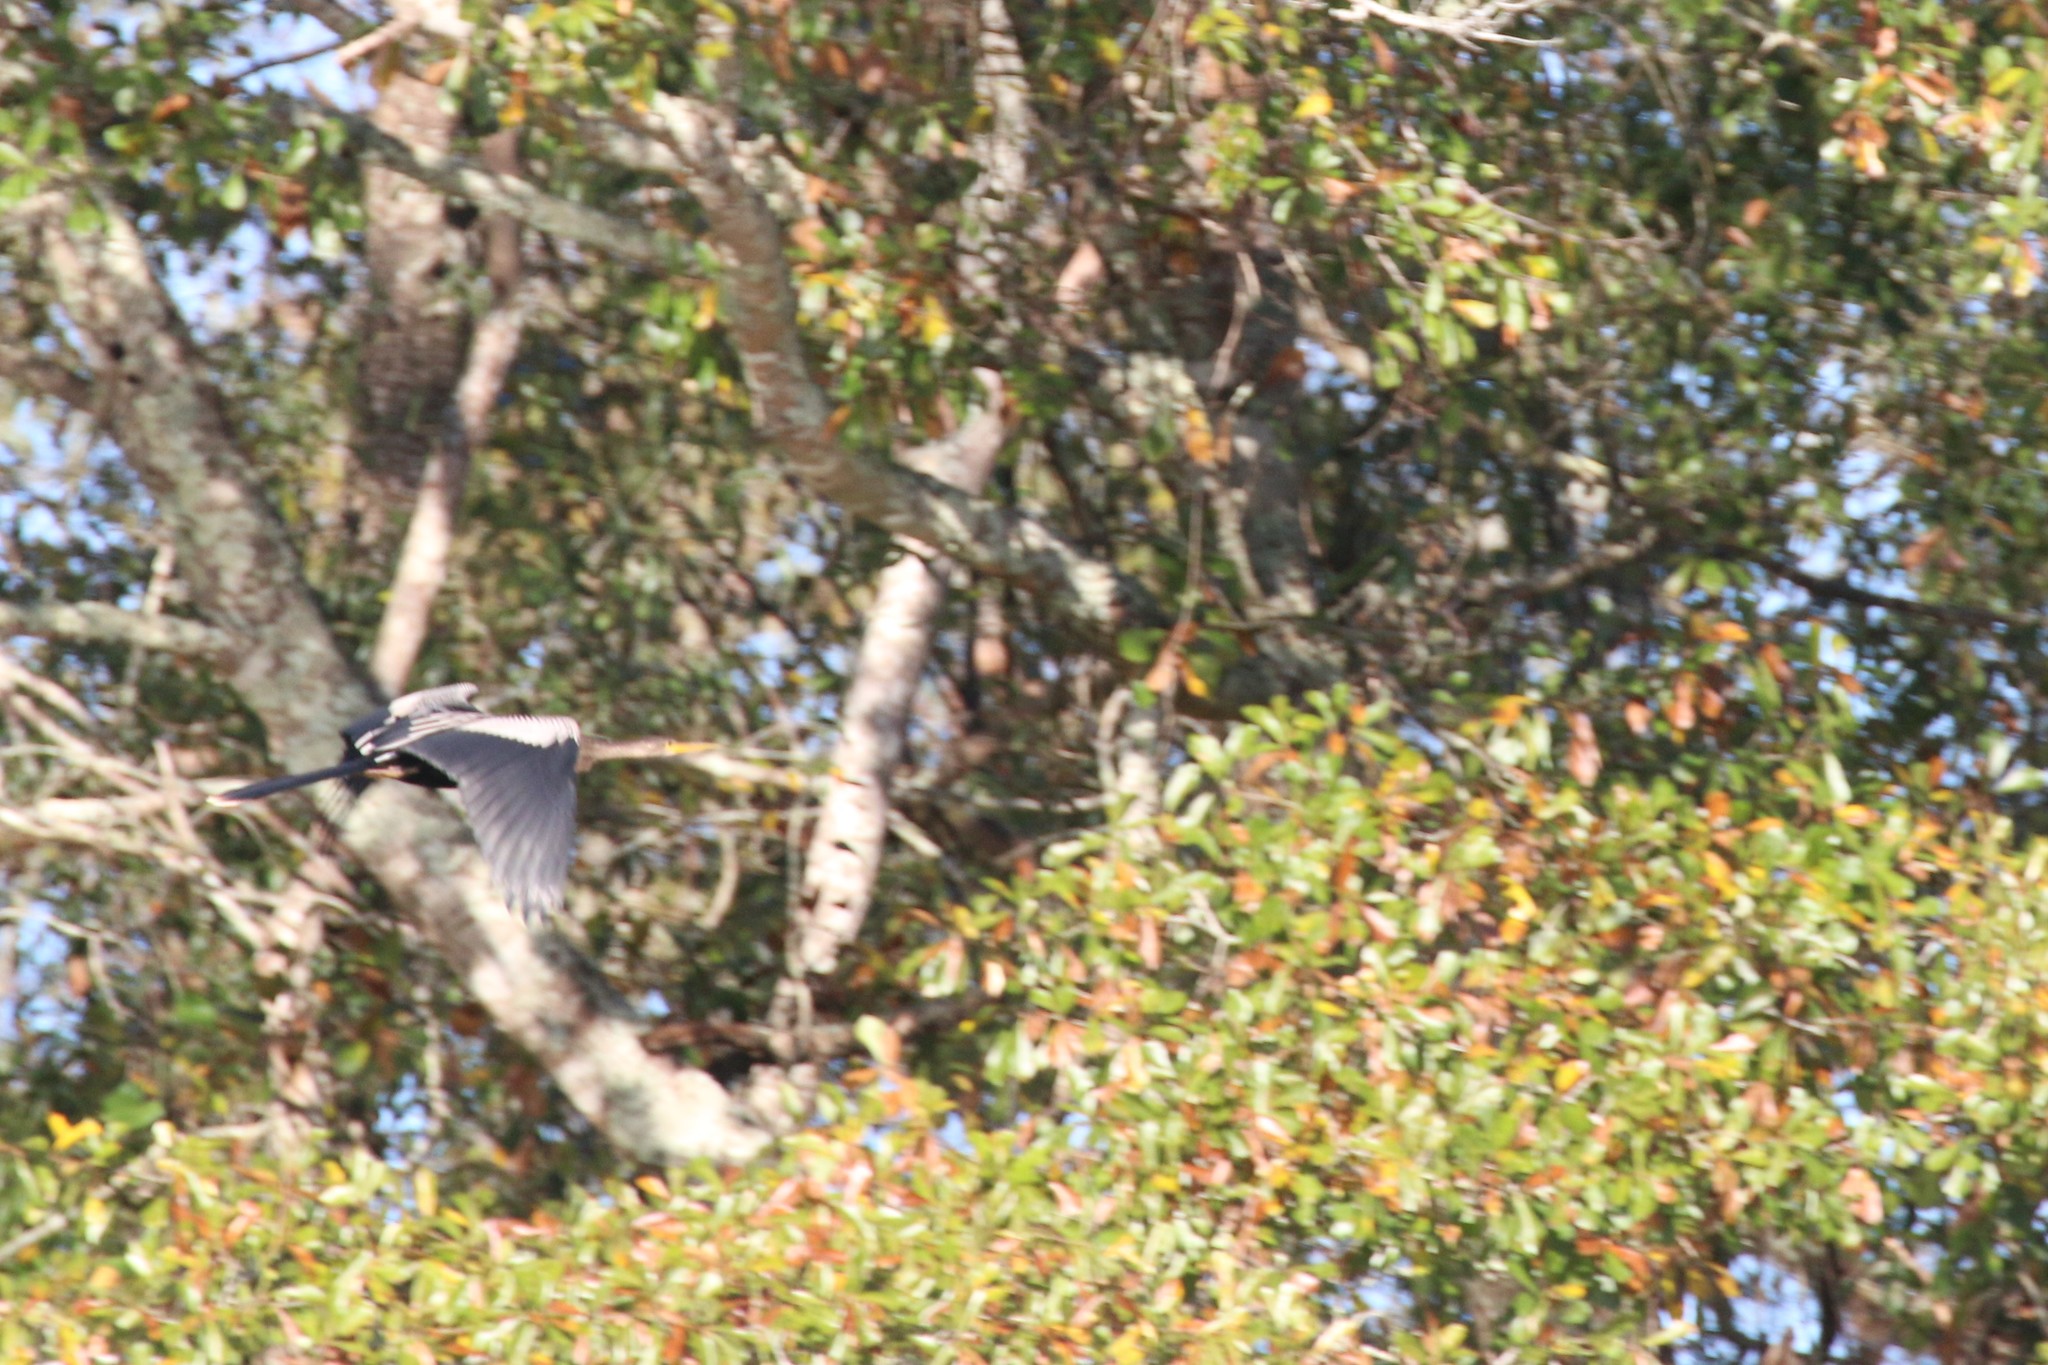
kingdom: Animalia
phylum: Chordata
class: Aves
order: Suliformes
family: Anhingidae
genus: Anhinga
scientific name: Anhinga anhinga
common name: Anhinga
